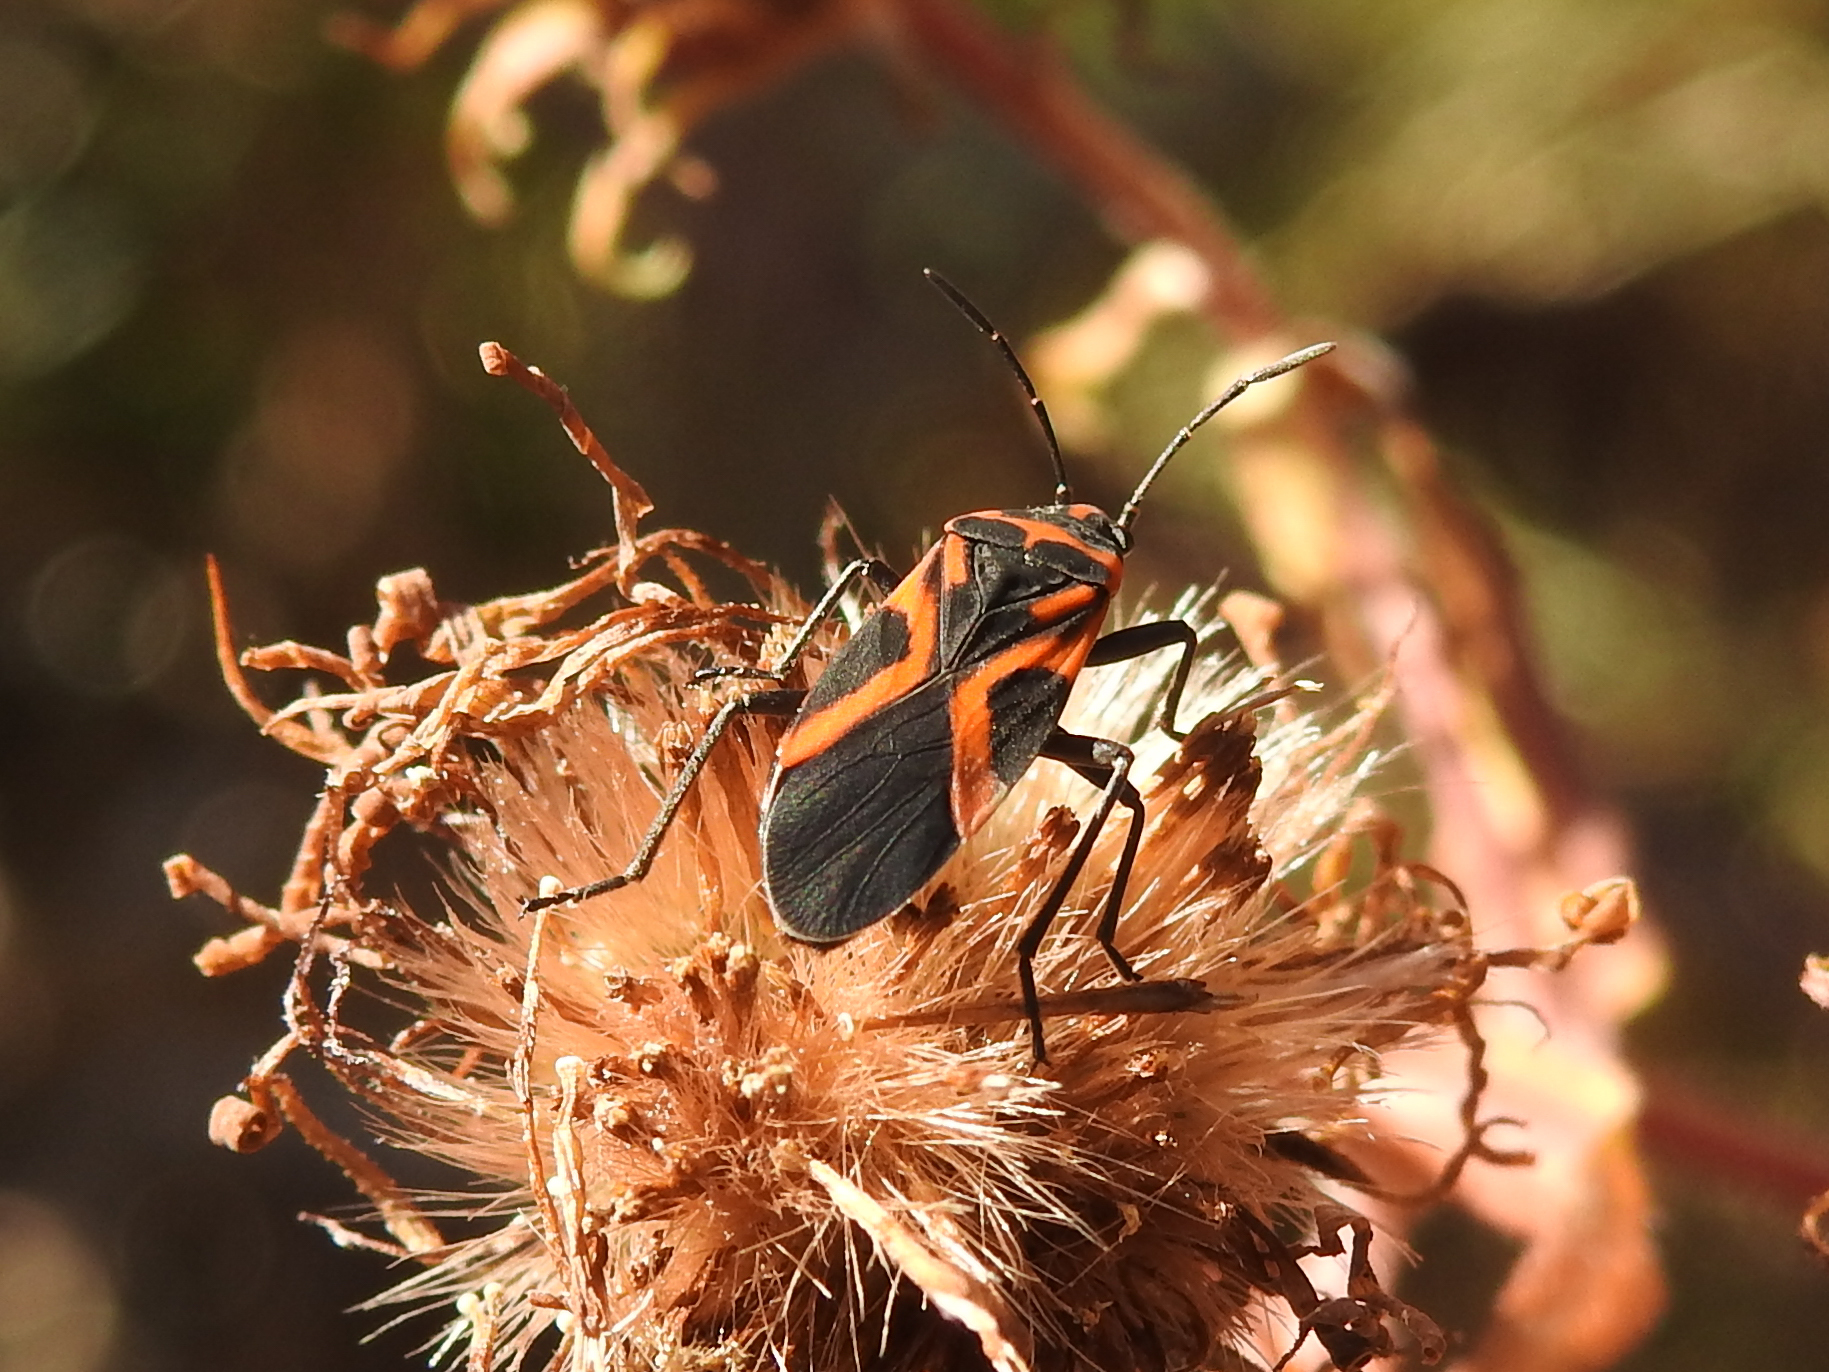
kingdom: Animalia
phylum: Arthropoda
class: Insecta
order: Hemiptera
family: Lygaeidae
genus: Lygaeus
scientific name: Lygaeus turcicus
